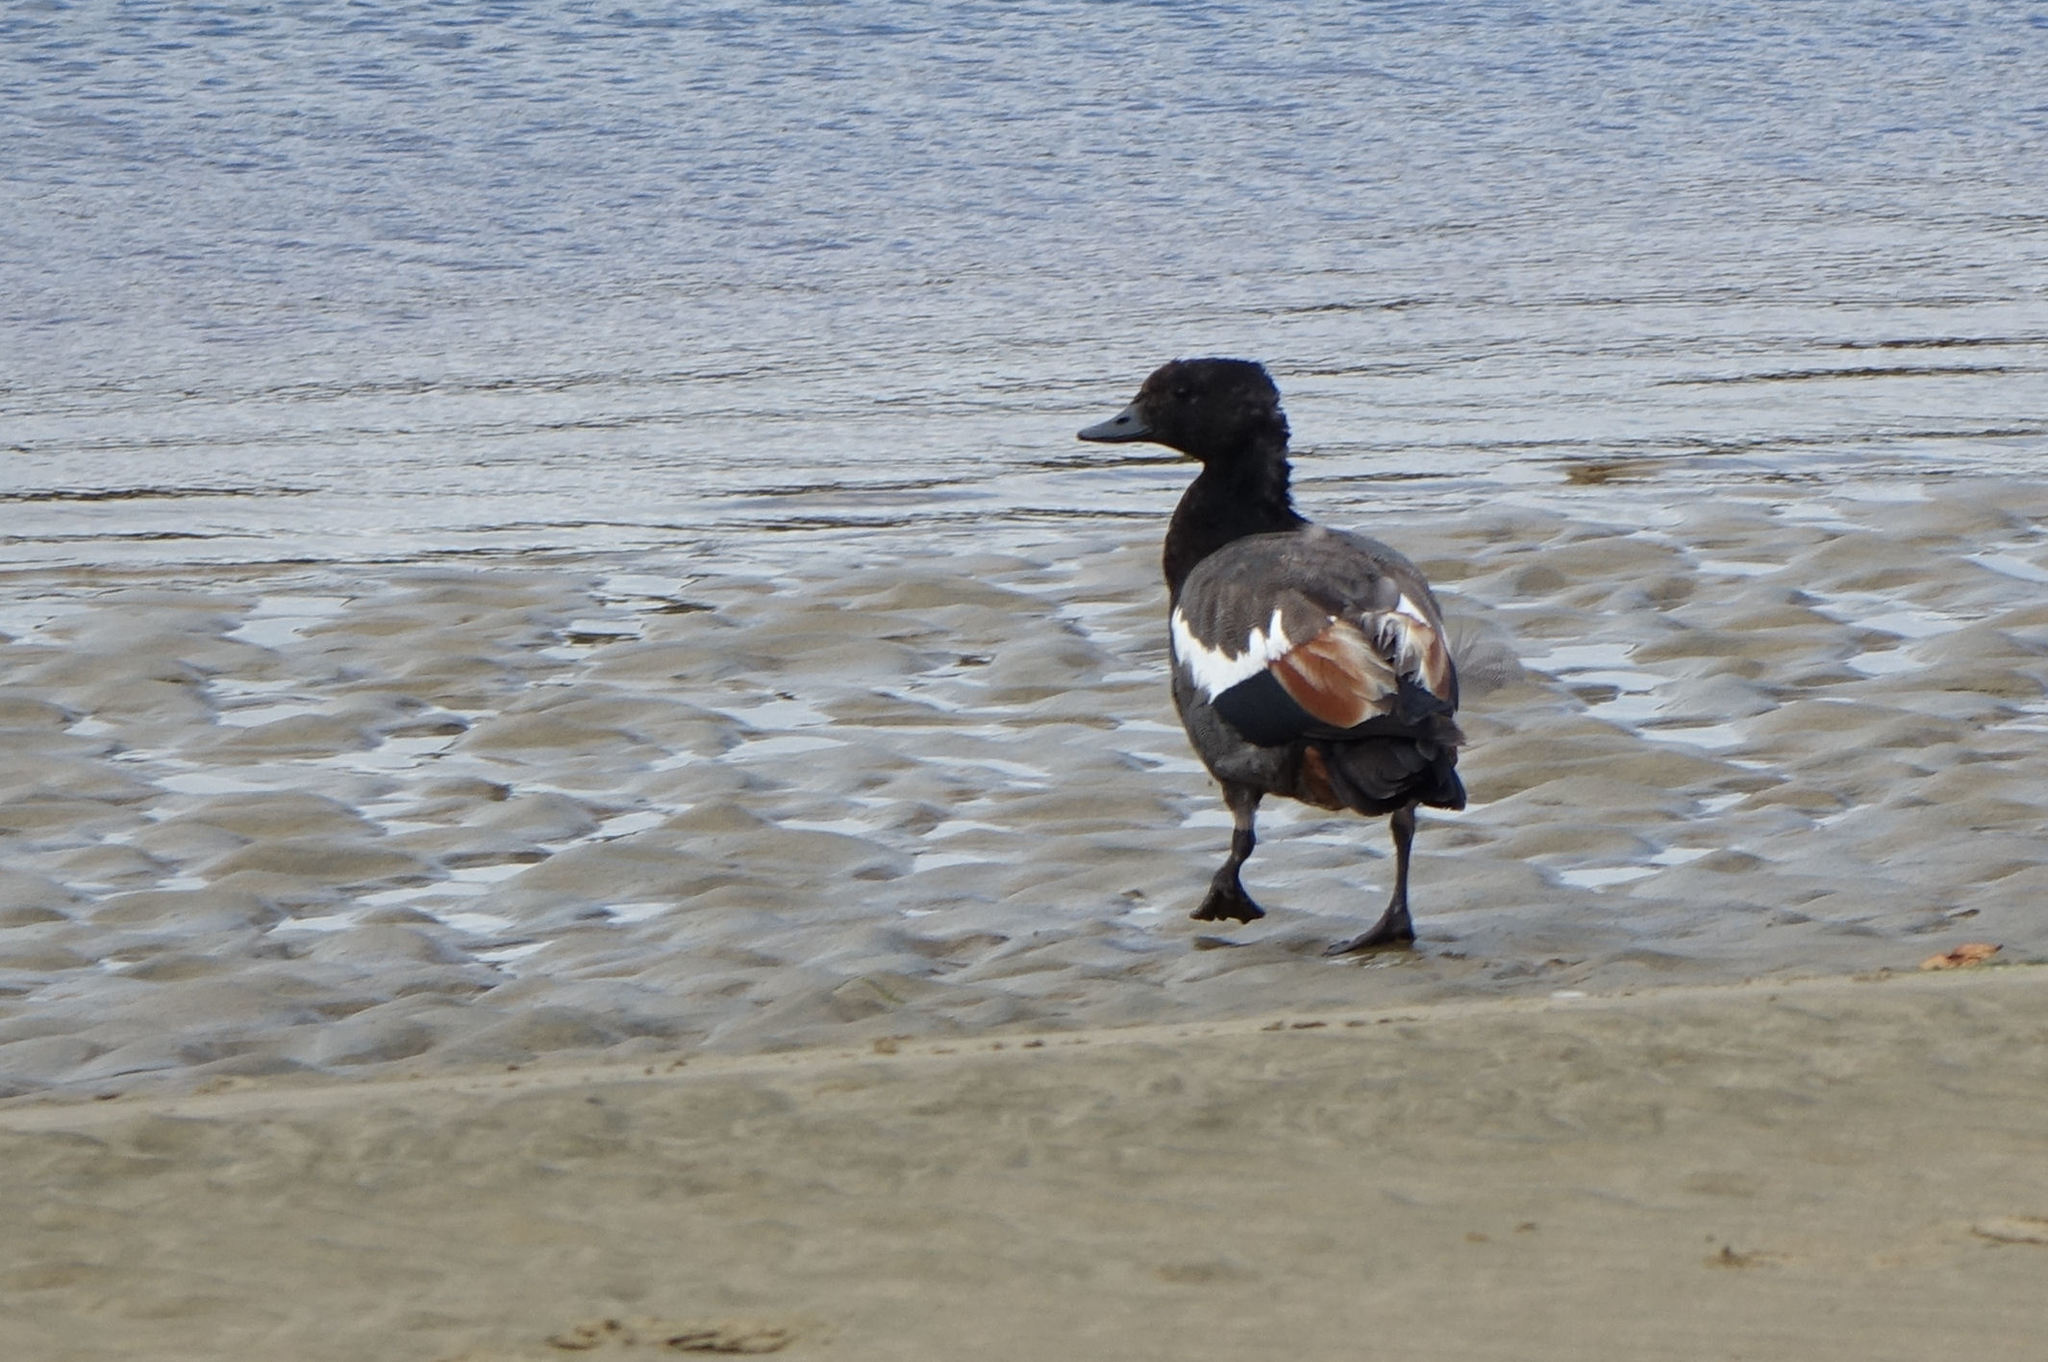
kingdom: Animalia
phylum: Chordata
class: Aves
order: Anseriformes
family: Anatidae
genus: Tadorna
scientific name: Tadorna variegata
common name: Paradise shelduck
